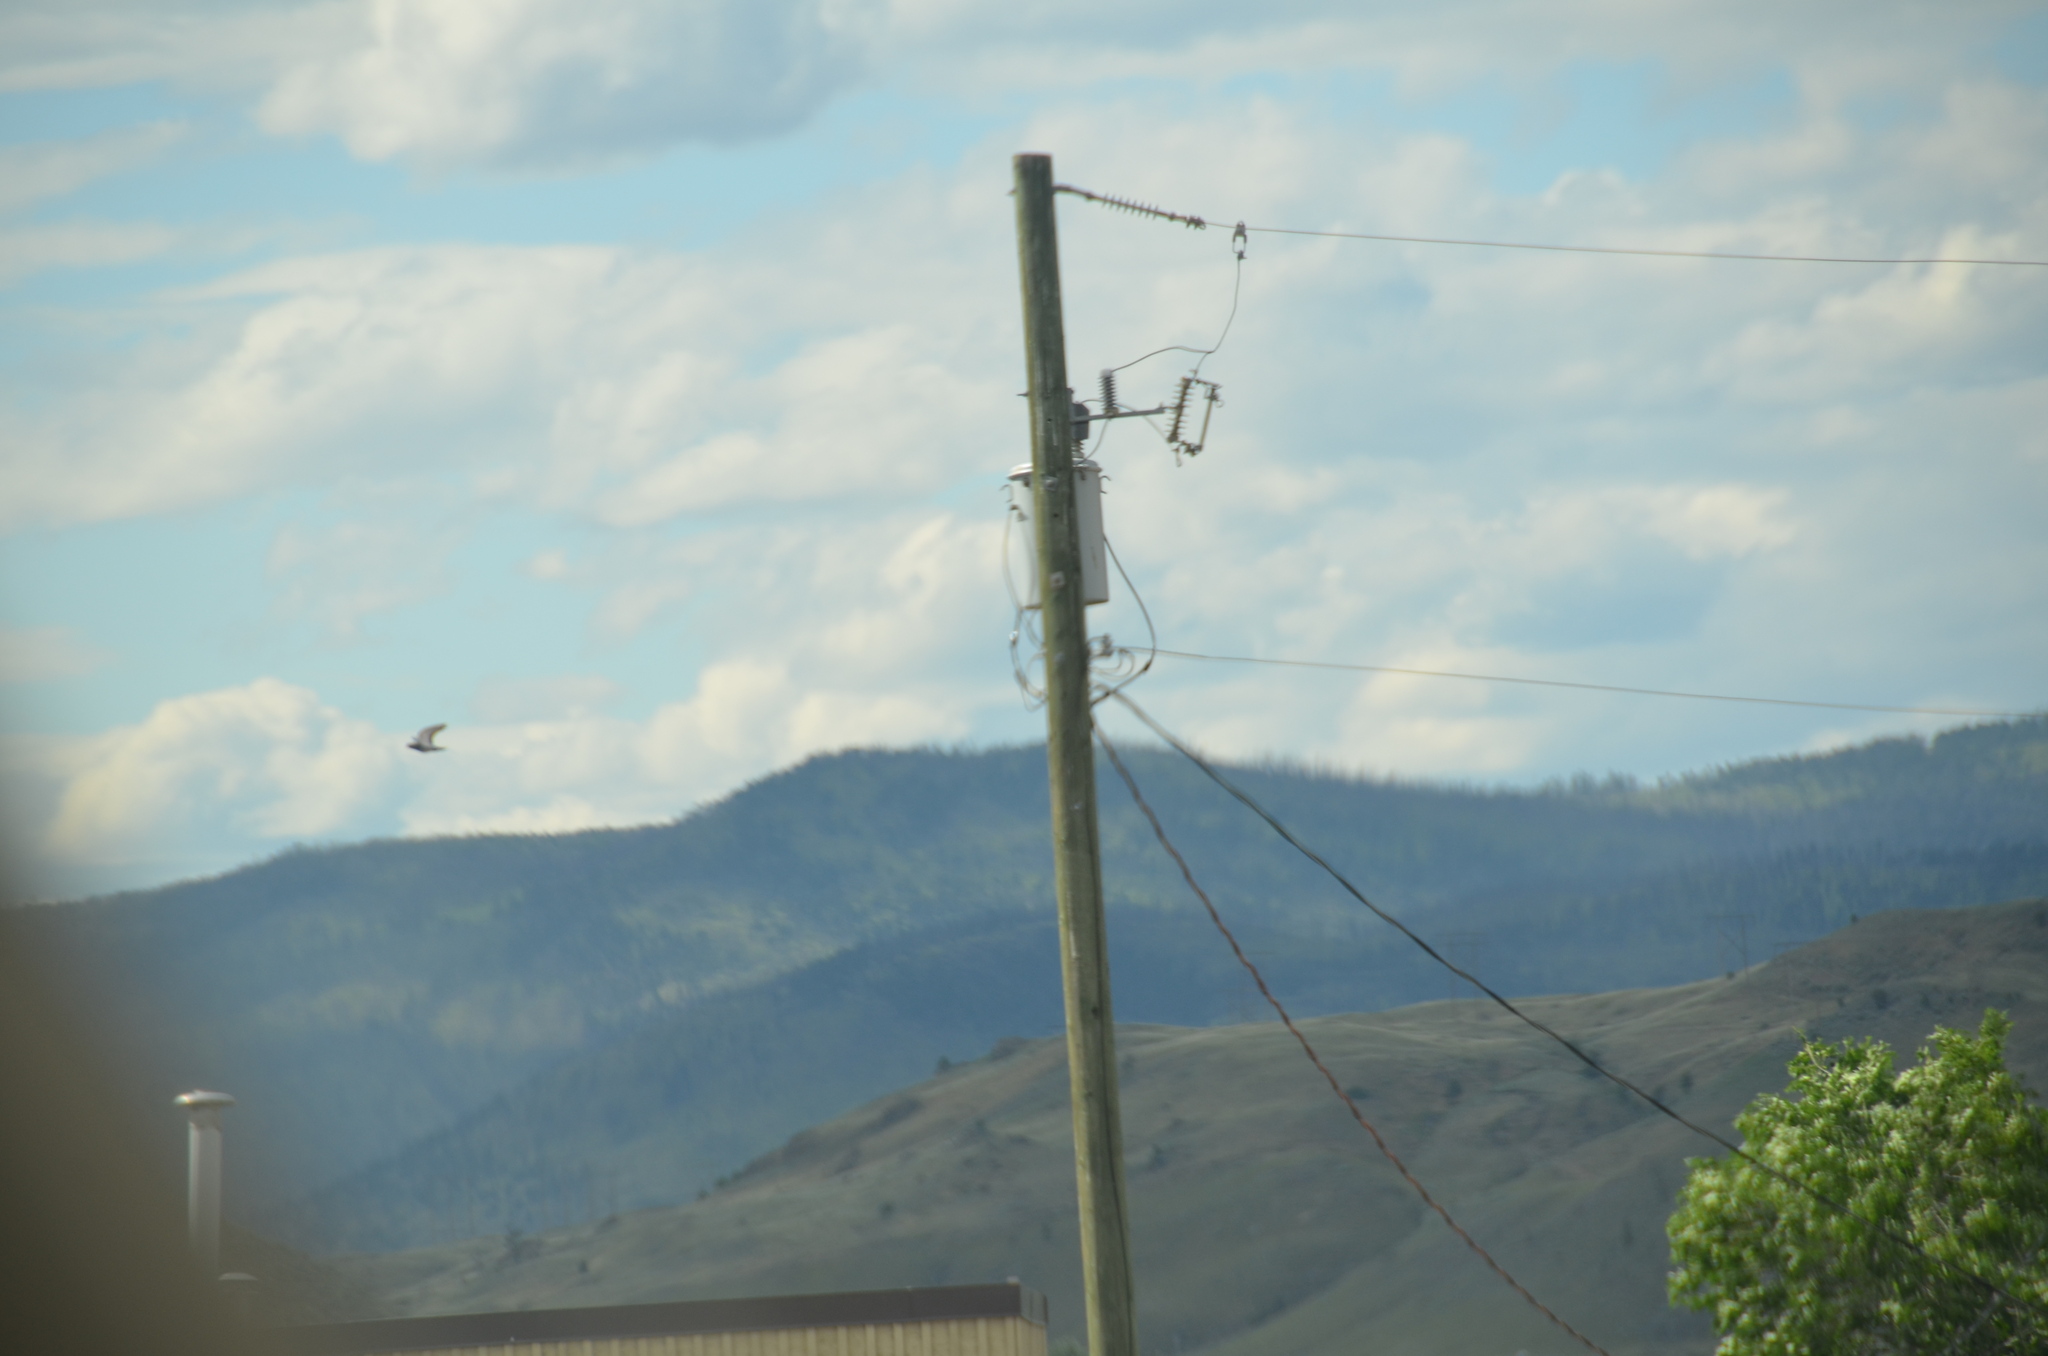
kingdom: Animalia
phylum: Chordata
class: Aves
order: Columbiformes
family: Columbidae
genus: Columba
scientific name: Columba livia
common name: Rock pigeon
